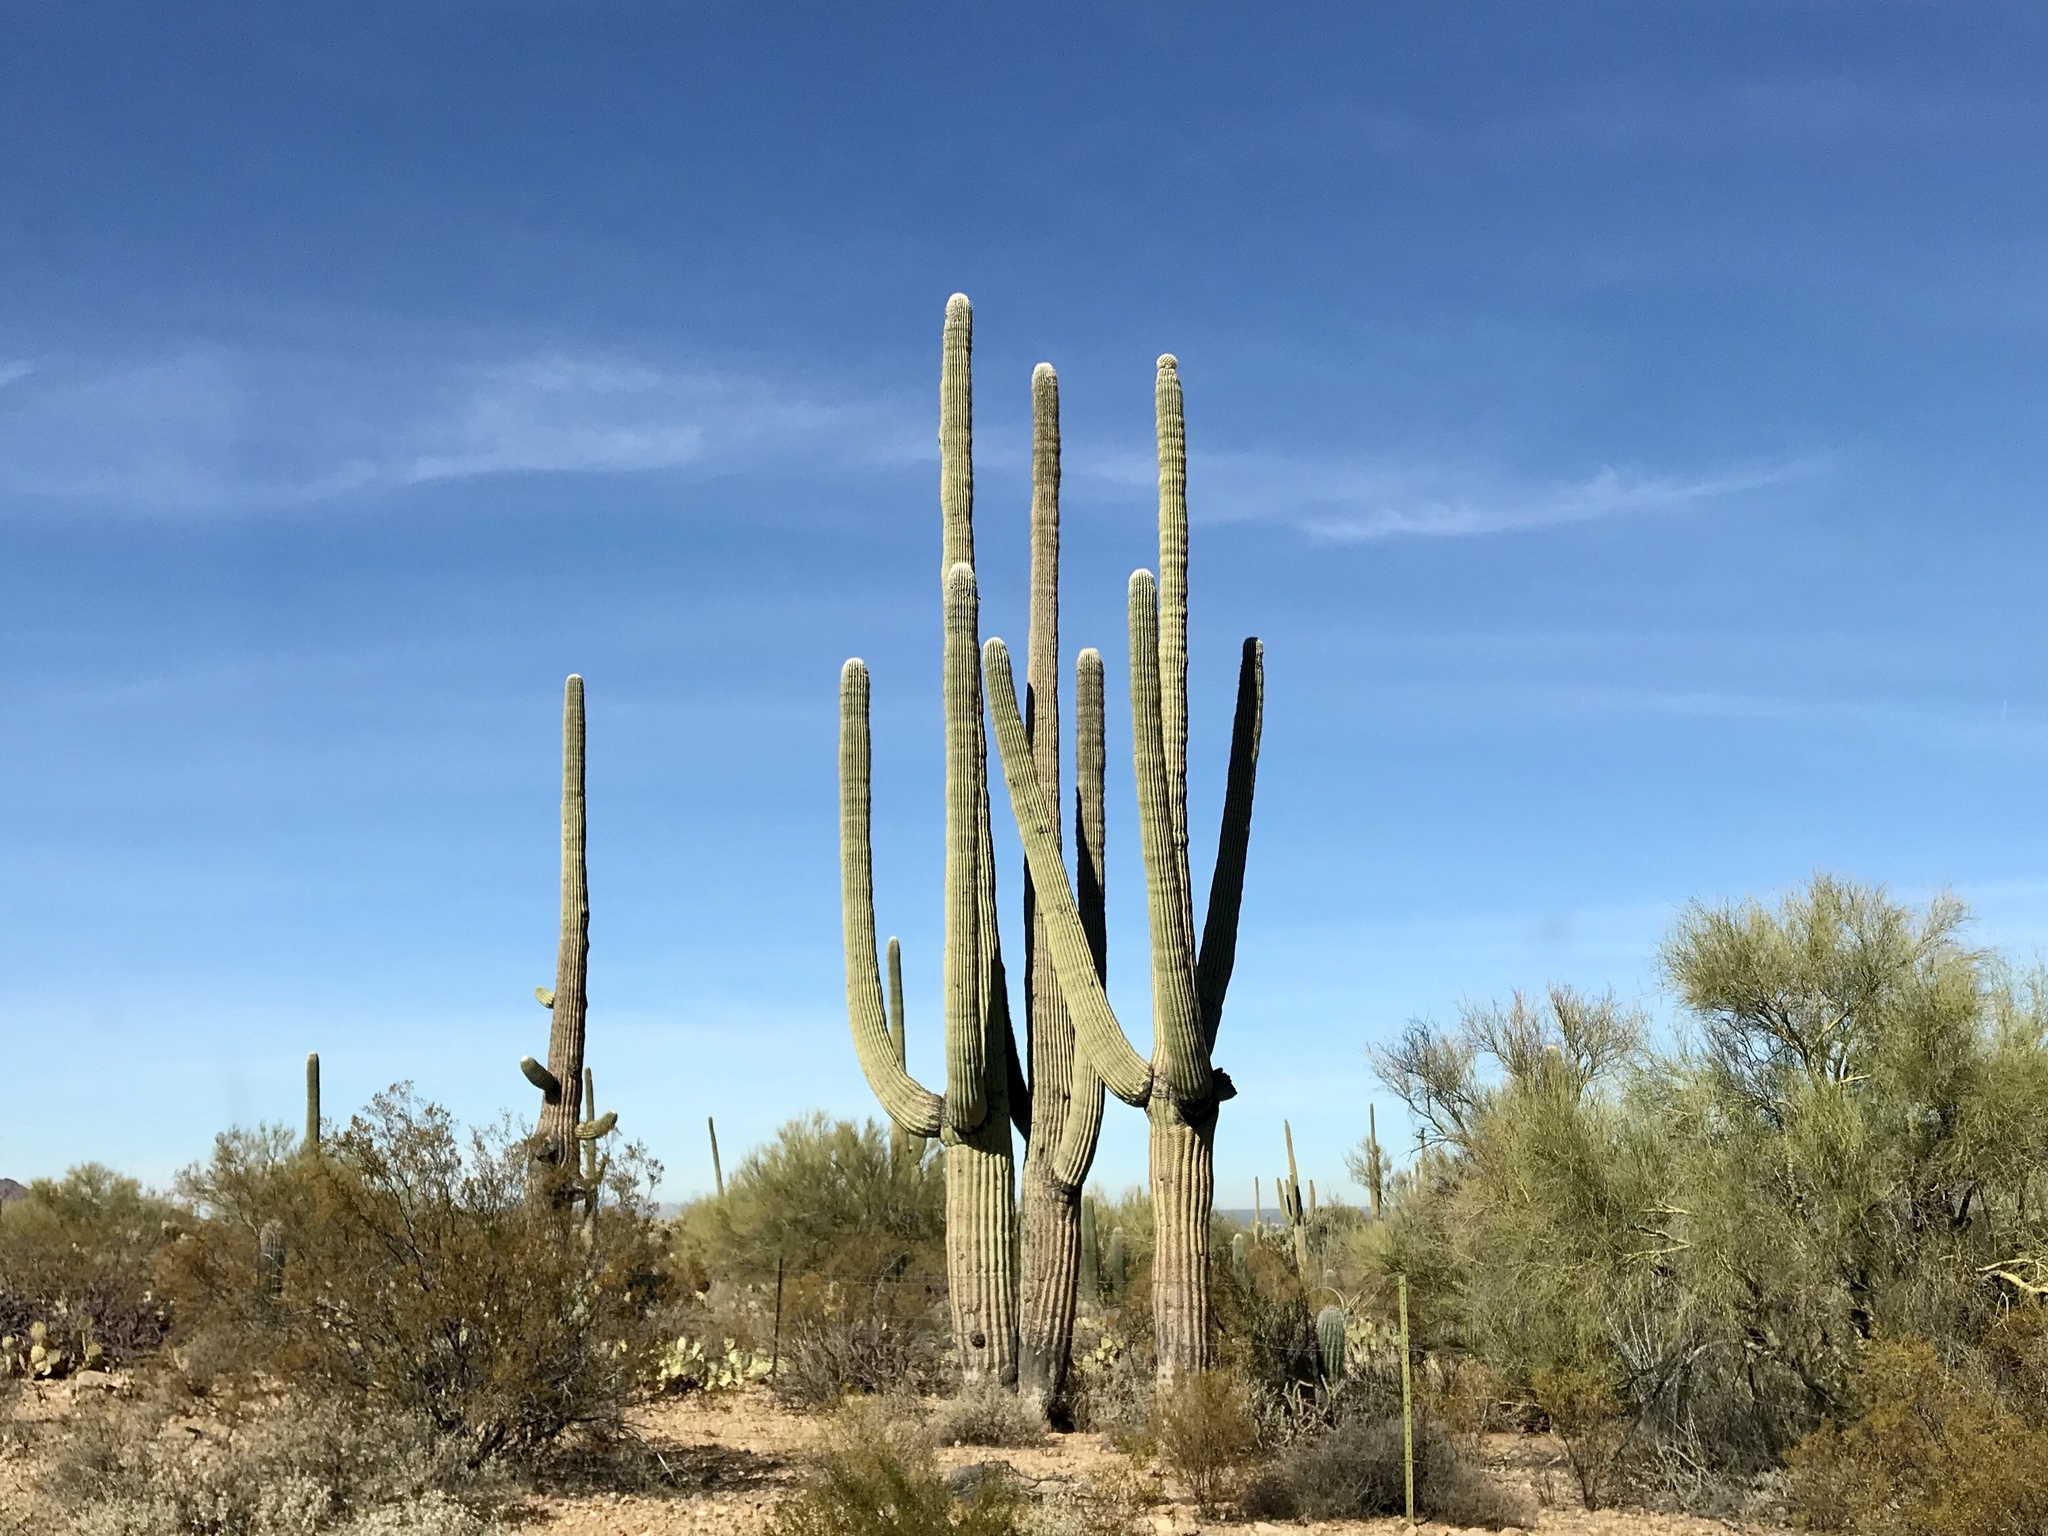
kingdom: Plantae
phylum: Tracheophyta
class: Magnoliopsida
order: Caryophyllales
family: Cactaceae
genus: Carnegiea
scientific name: Carnegiea gigantea
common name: Saguaro
